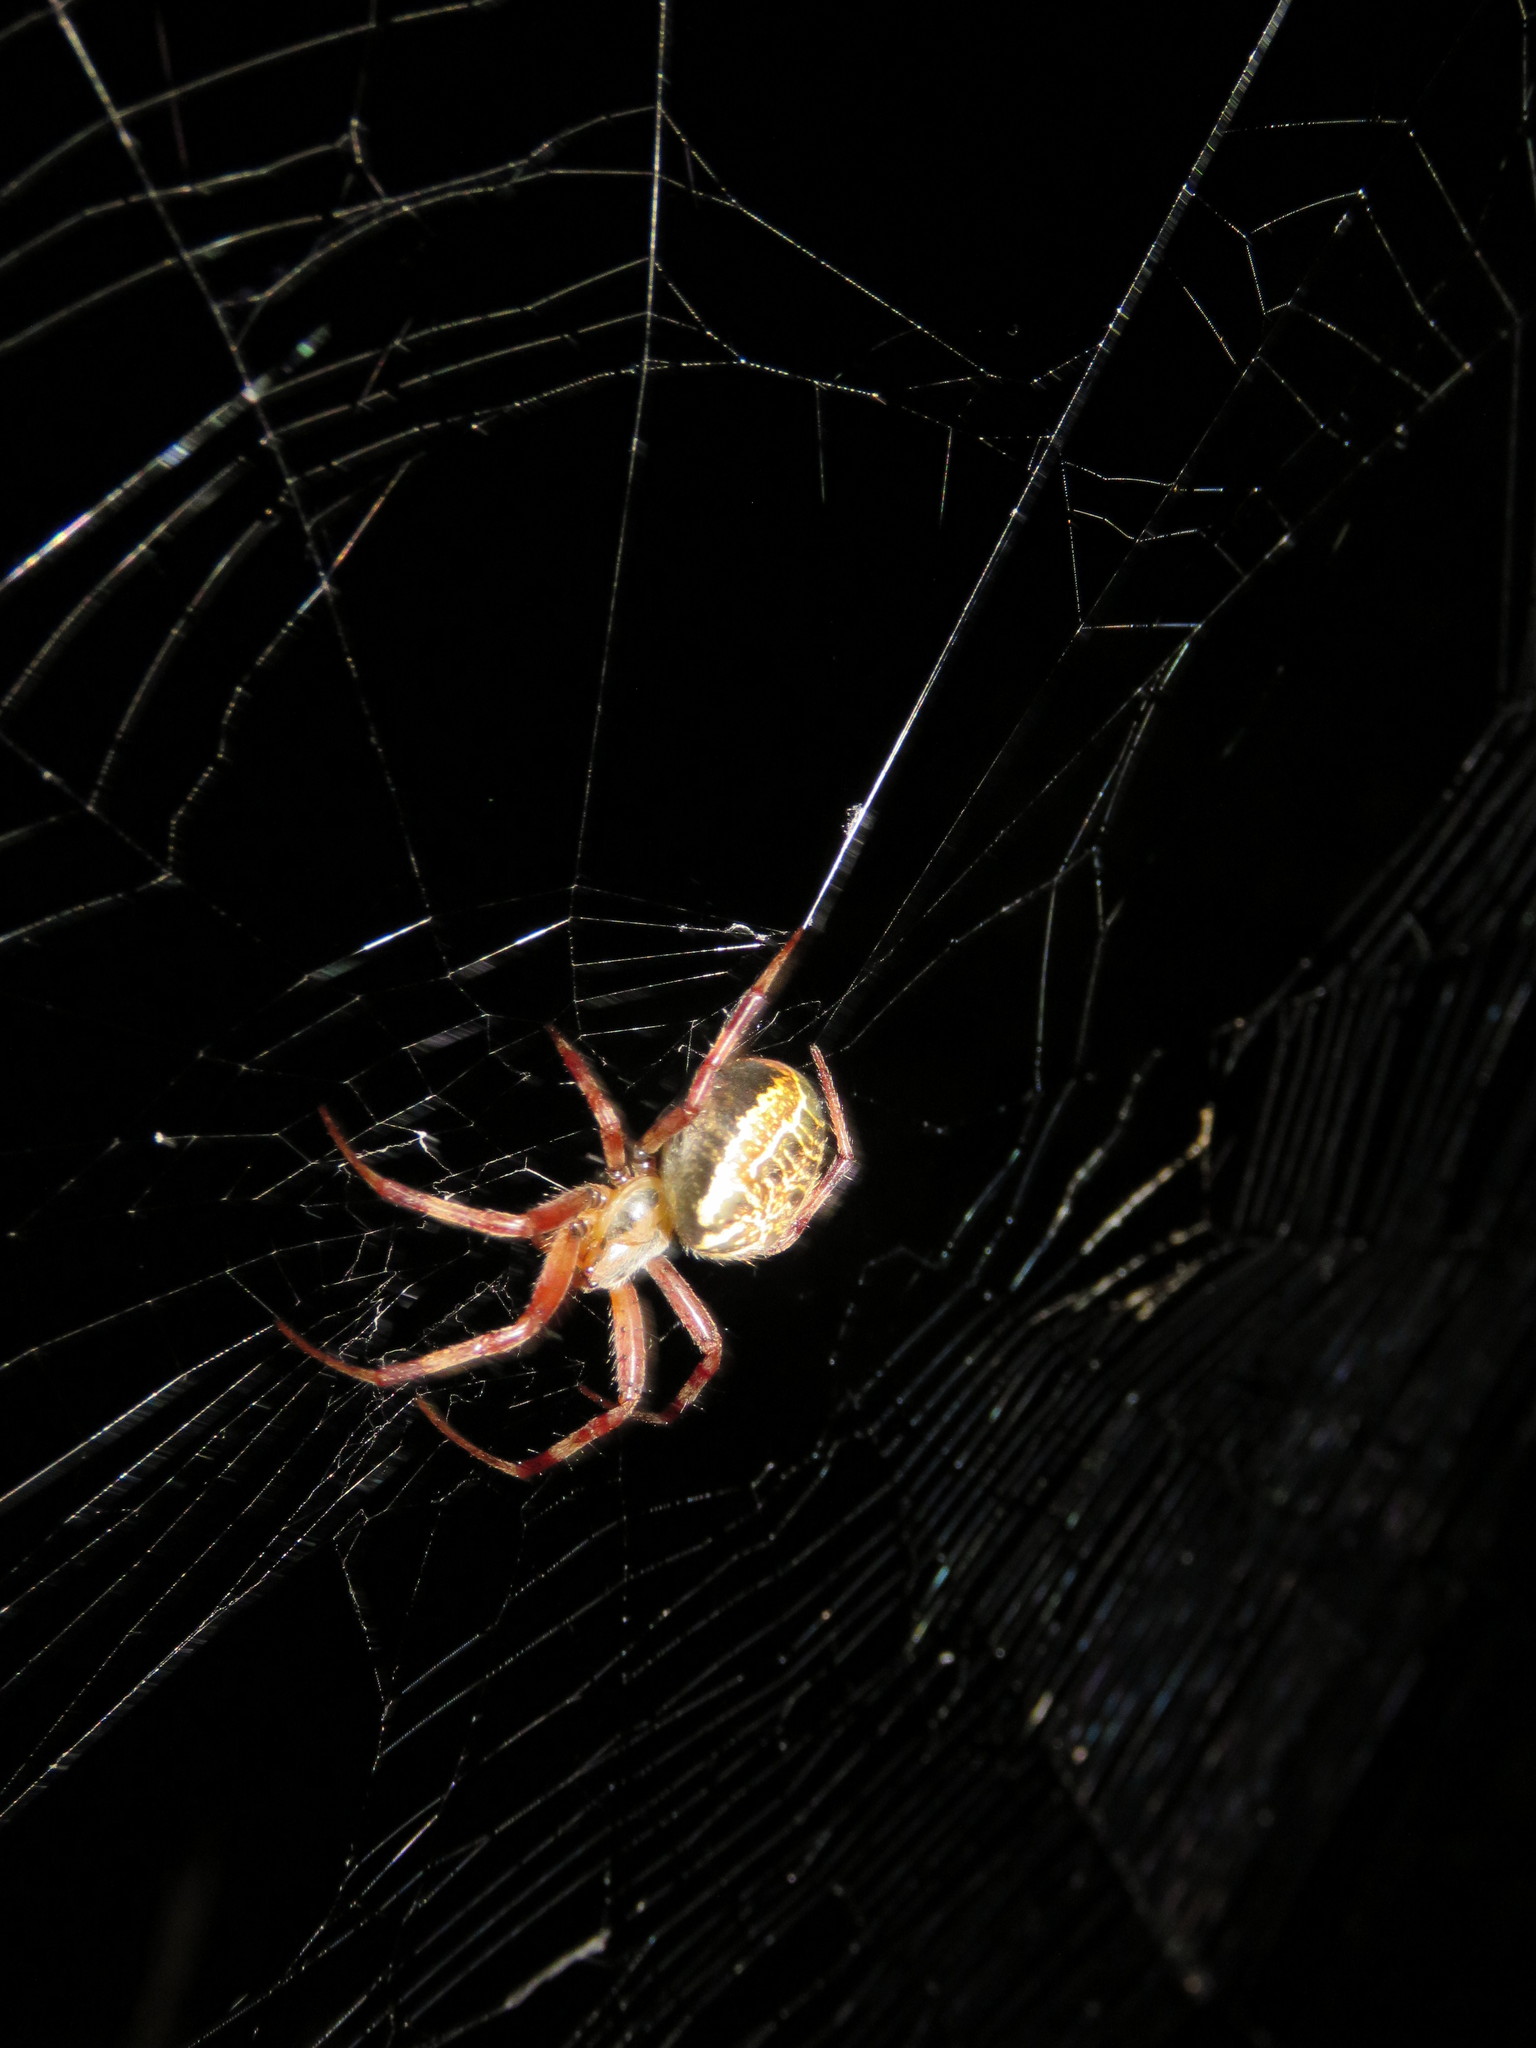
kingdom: Animalia
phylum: Arthropoda
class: Arachnida
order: Araneae
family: Araneidae
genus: Araneus
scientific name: Araneus venatrix
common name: Orb weavers
